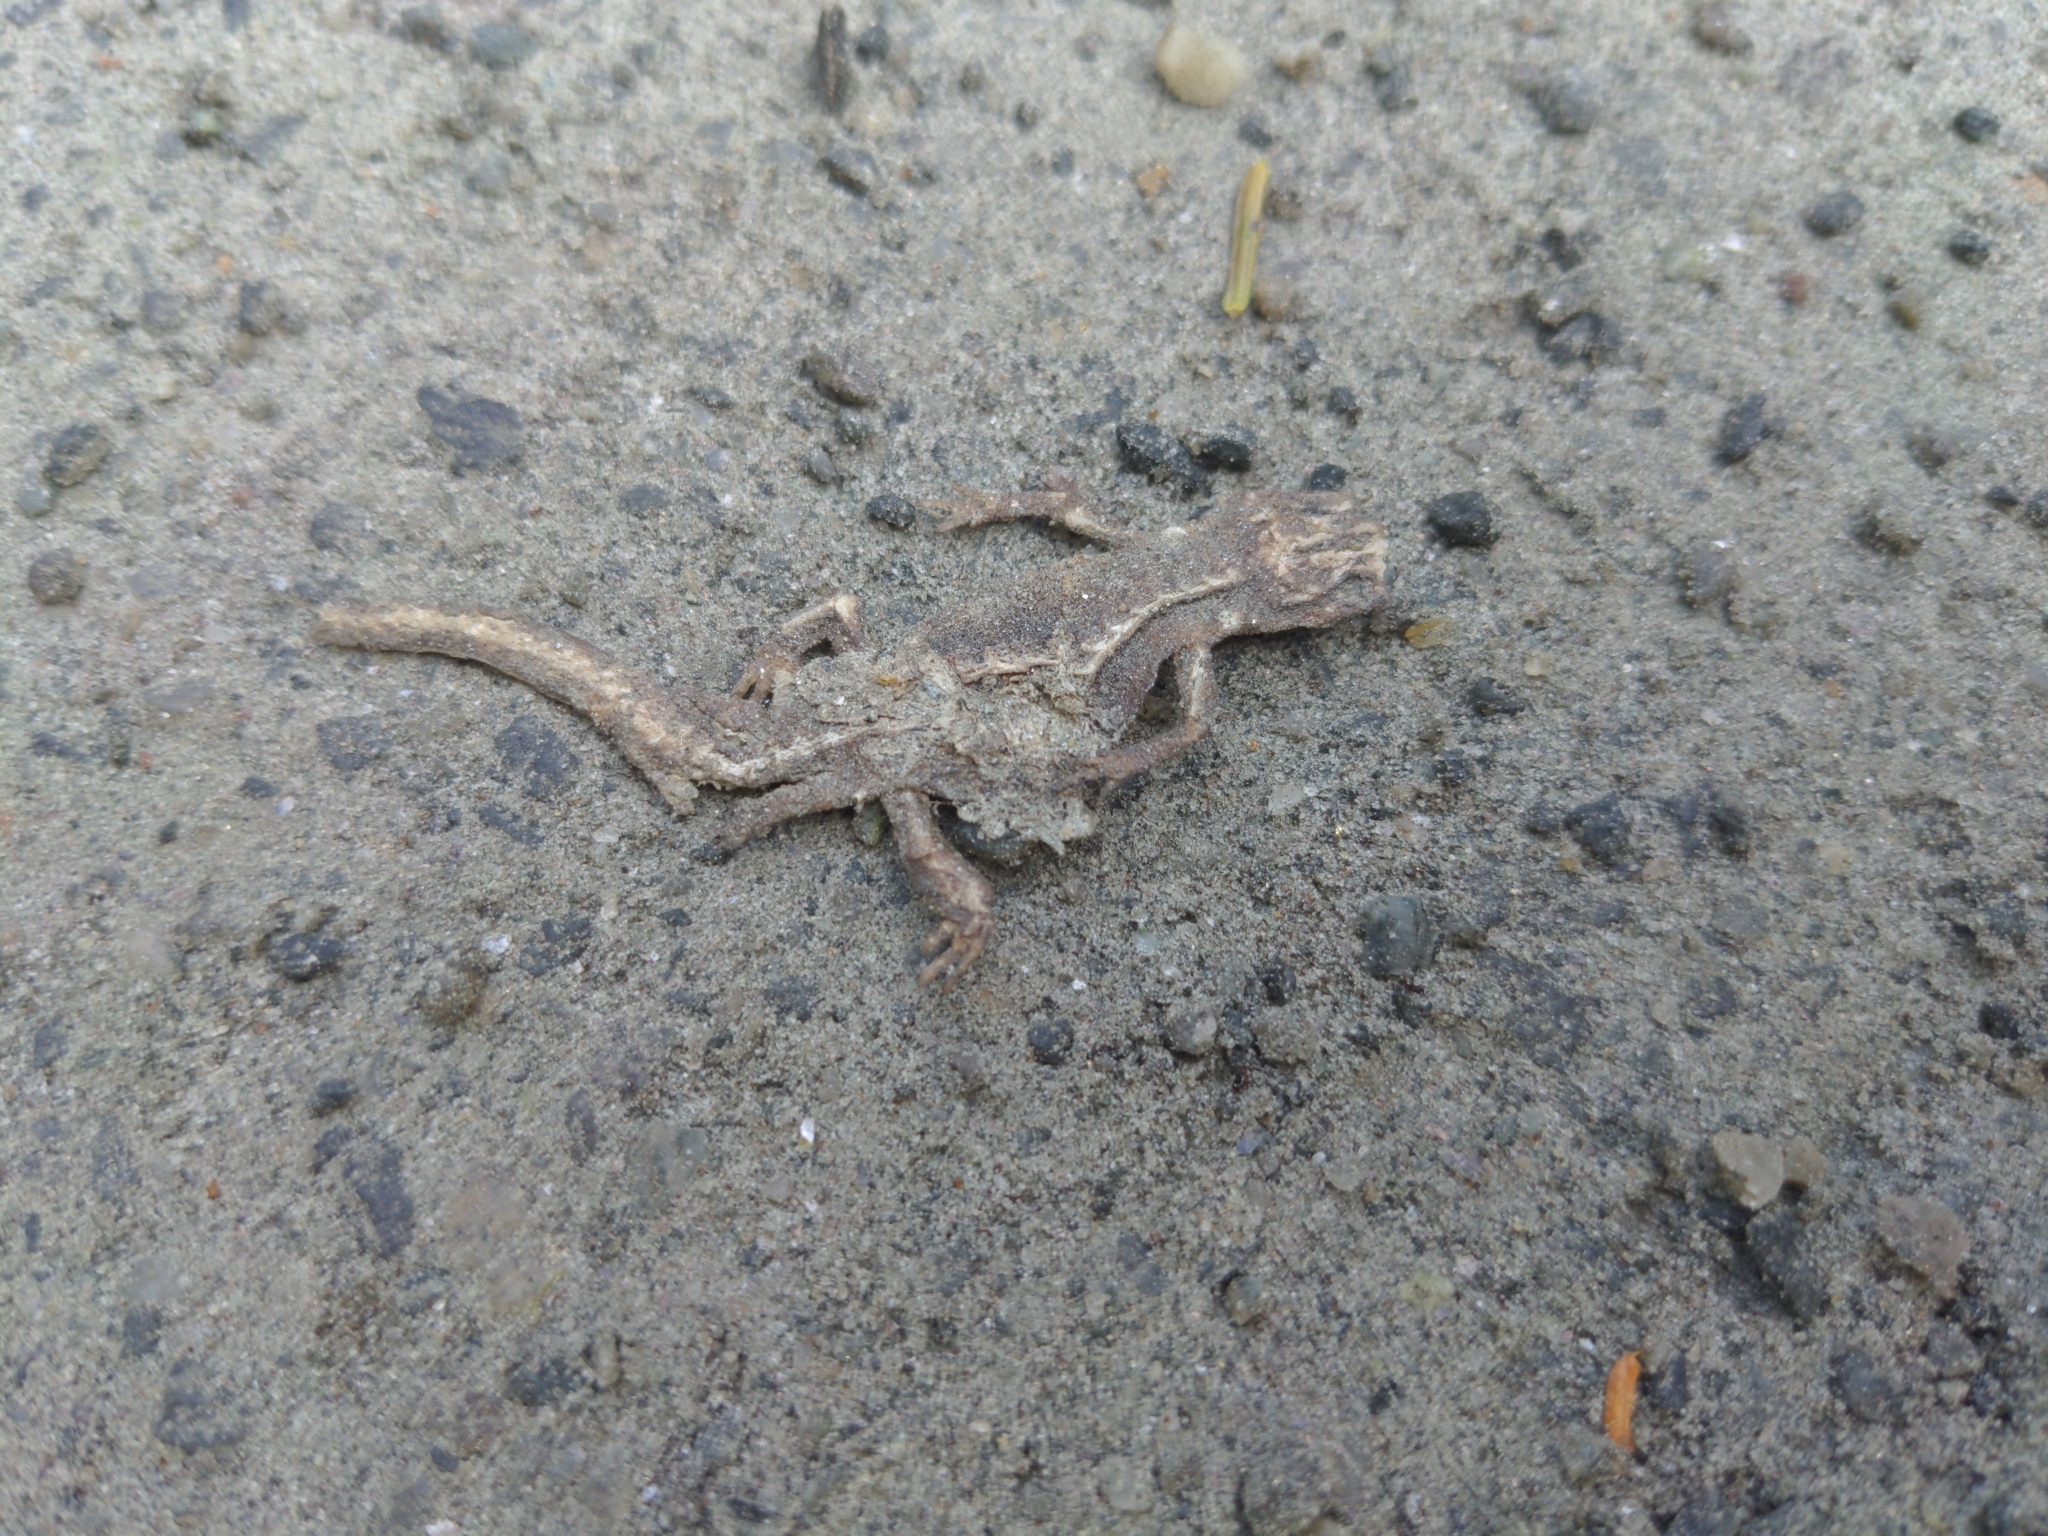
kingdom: Animalia
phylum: Chordata
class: Amphibia
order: Caudata
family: Salamandridae
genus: Notophthalmus
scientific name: Notophthalmus viridescens
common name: Eastern newt
